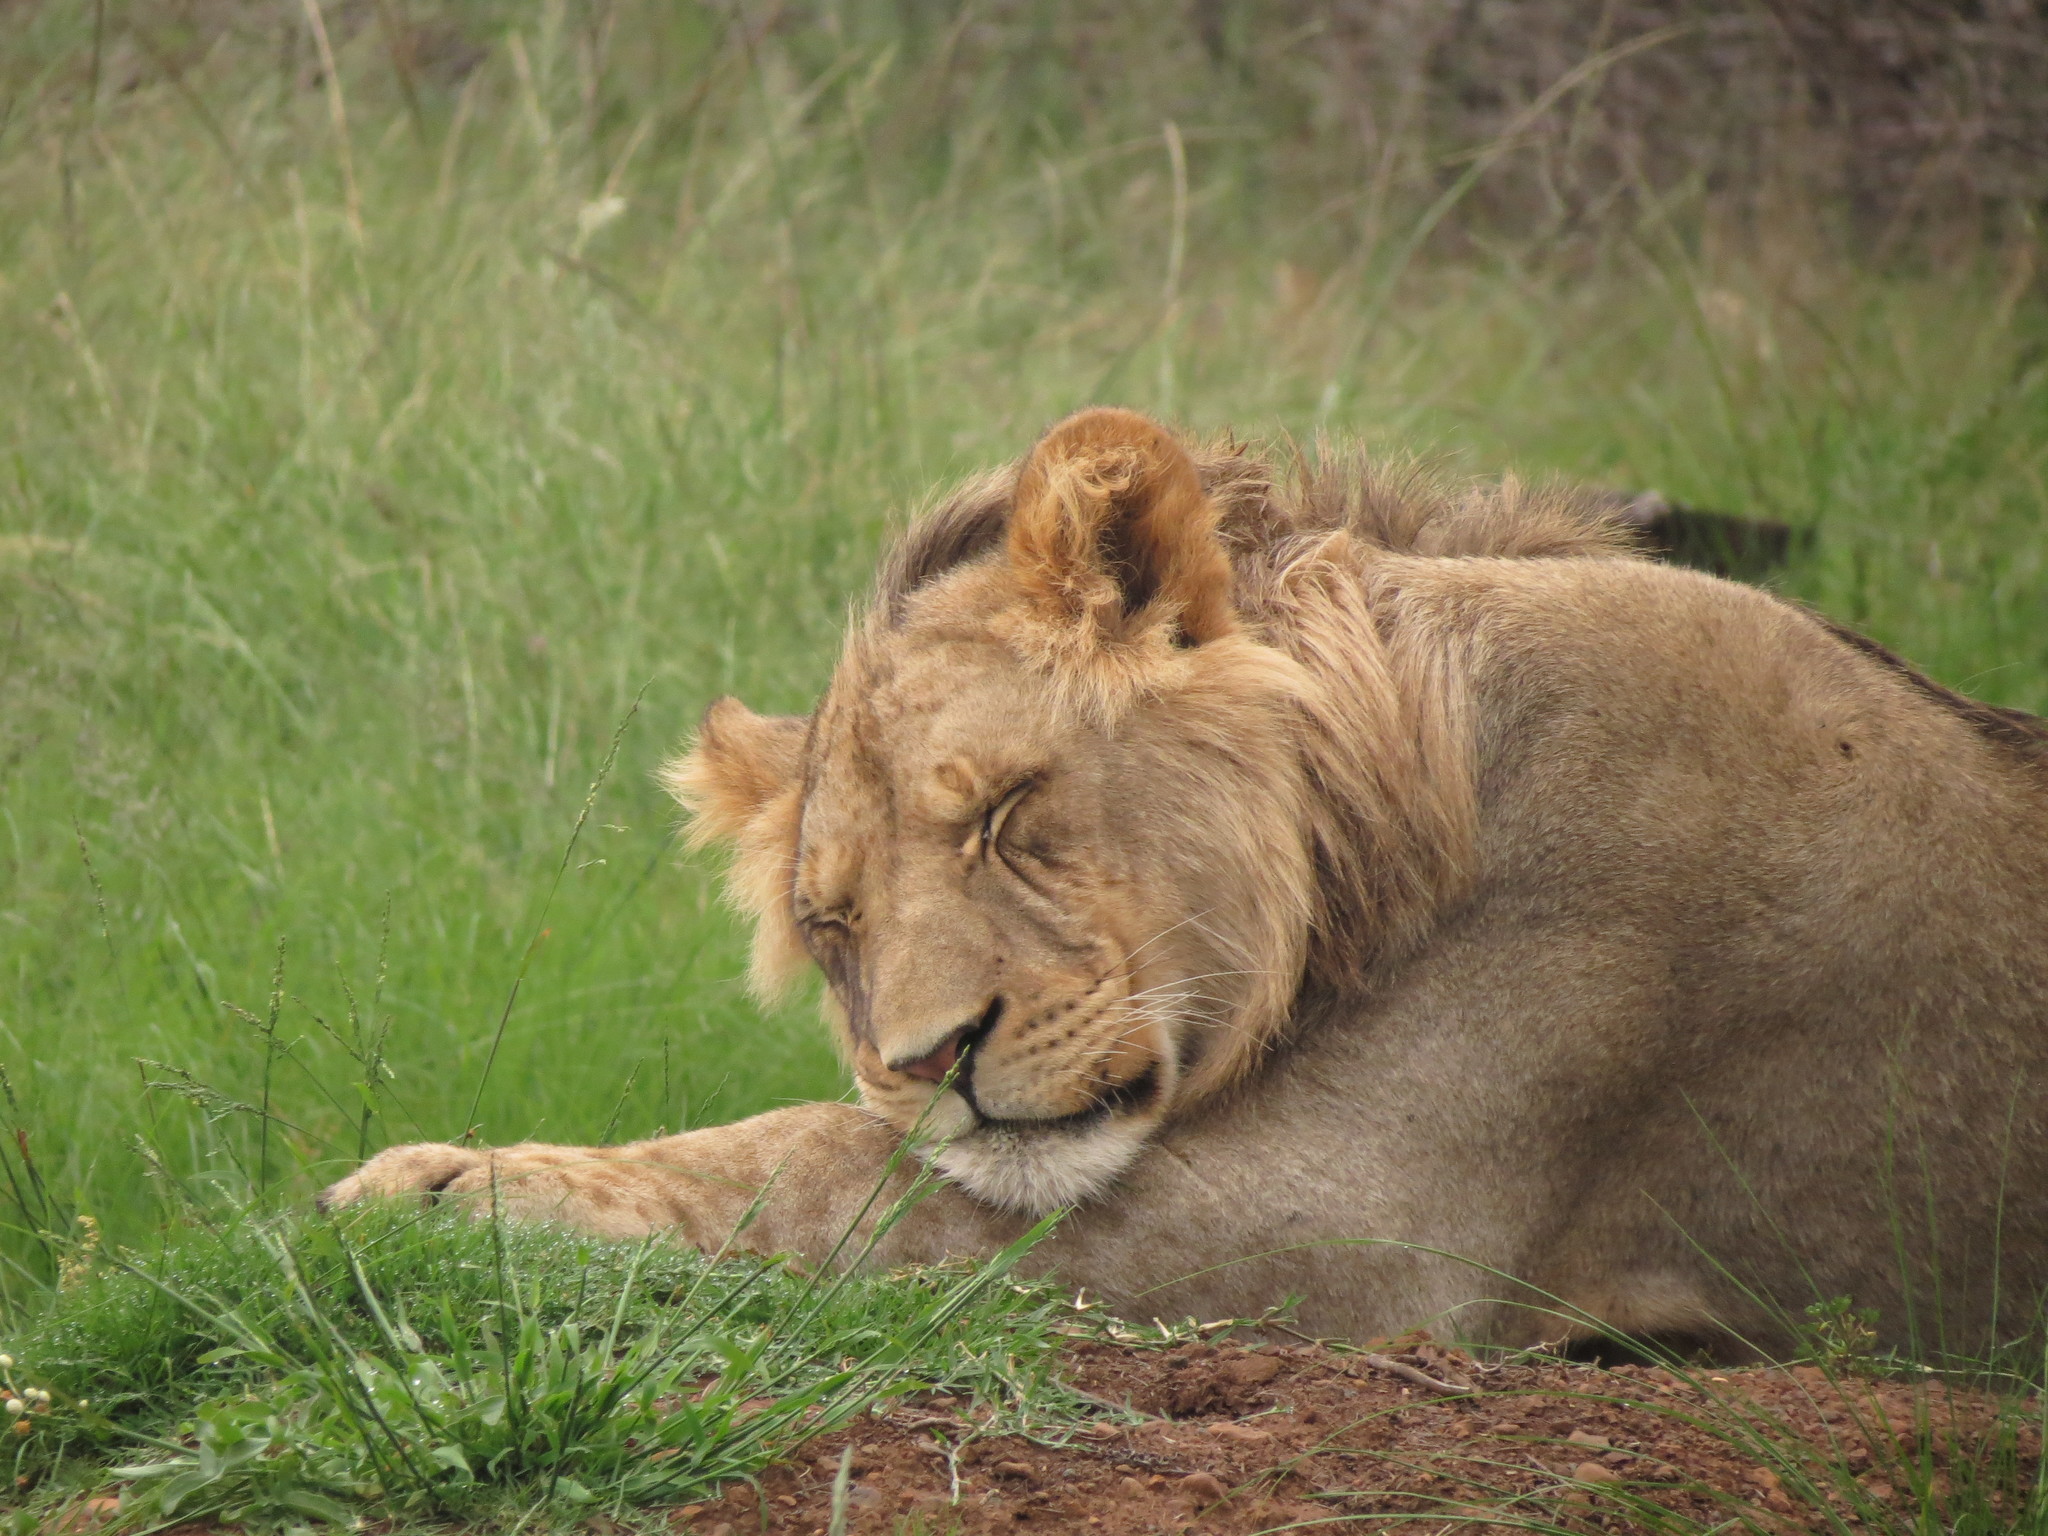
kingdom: Animalia
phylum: Chordata
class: Mammalia
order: Carnivora
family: Felidae
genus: Panthera
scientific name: Panthera leo
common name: Lion
